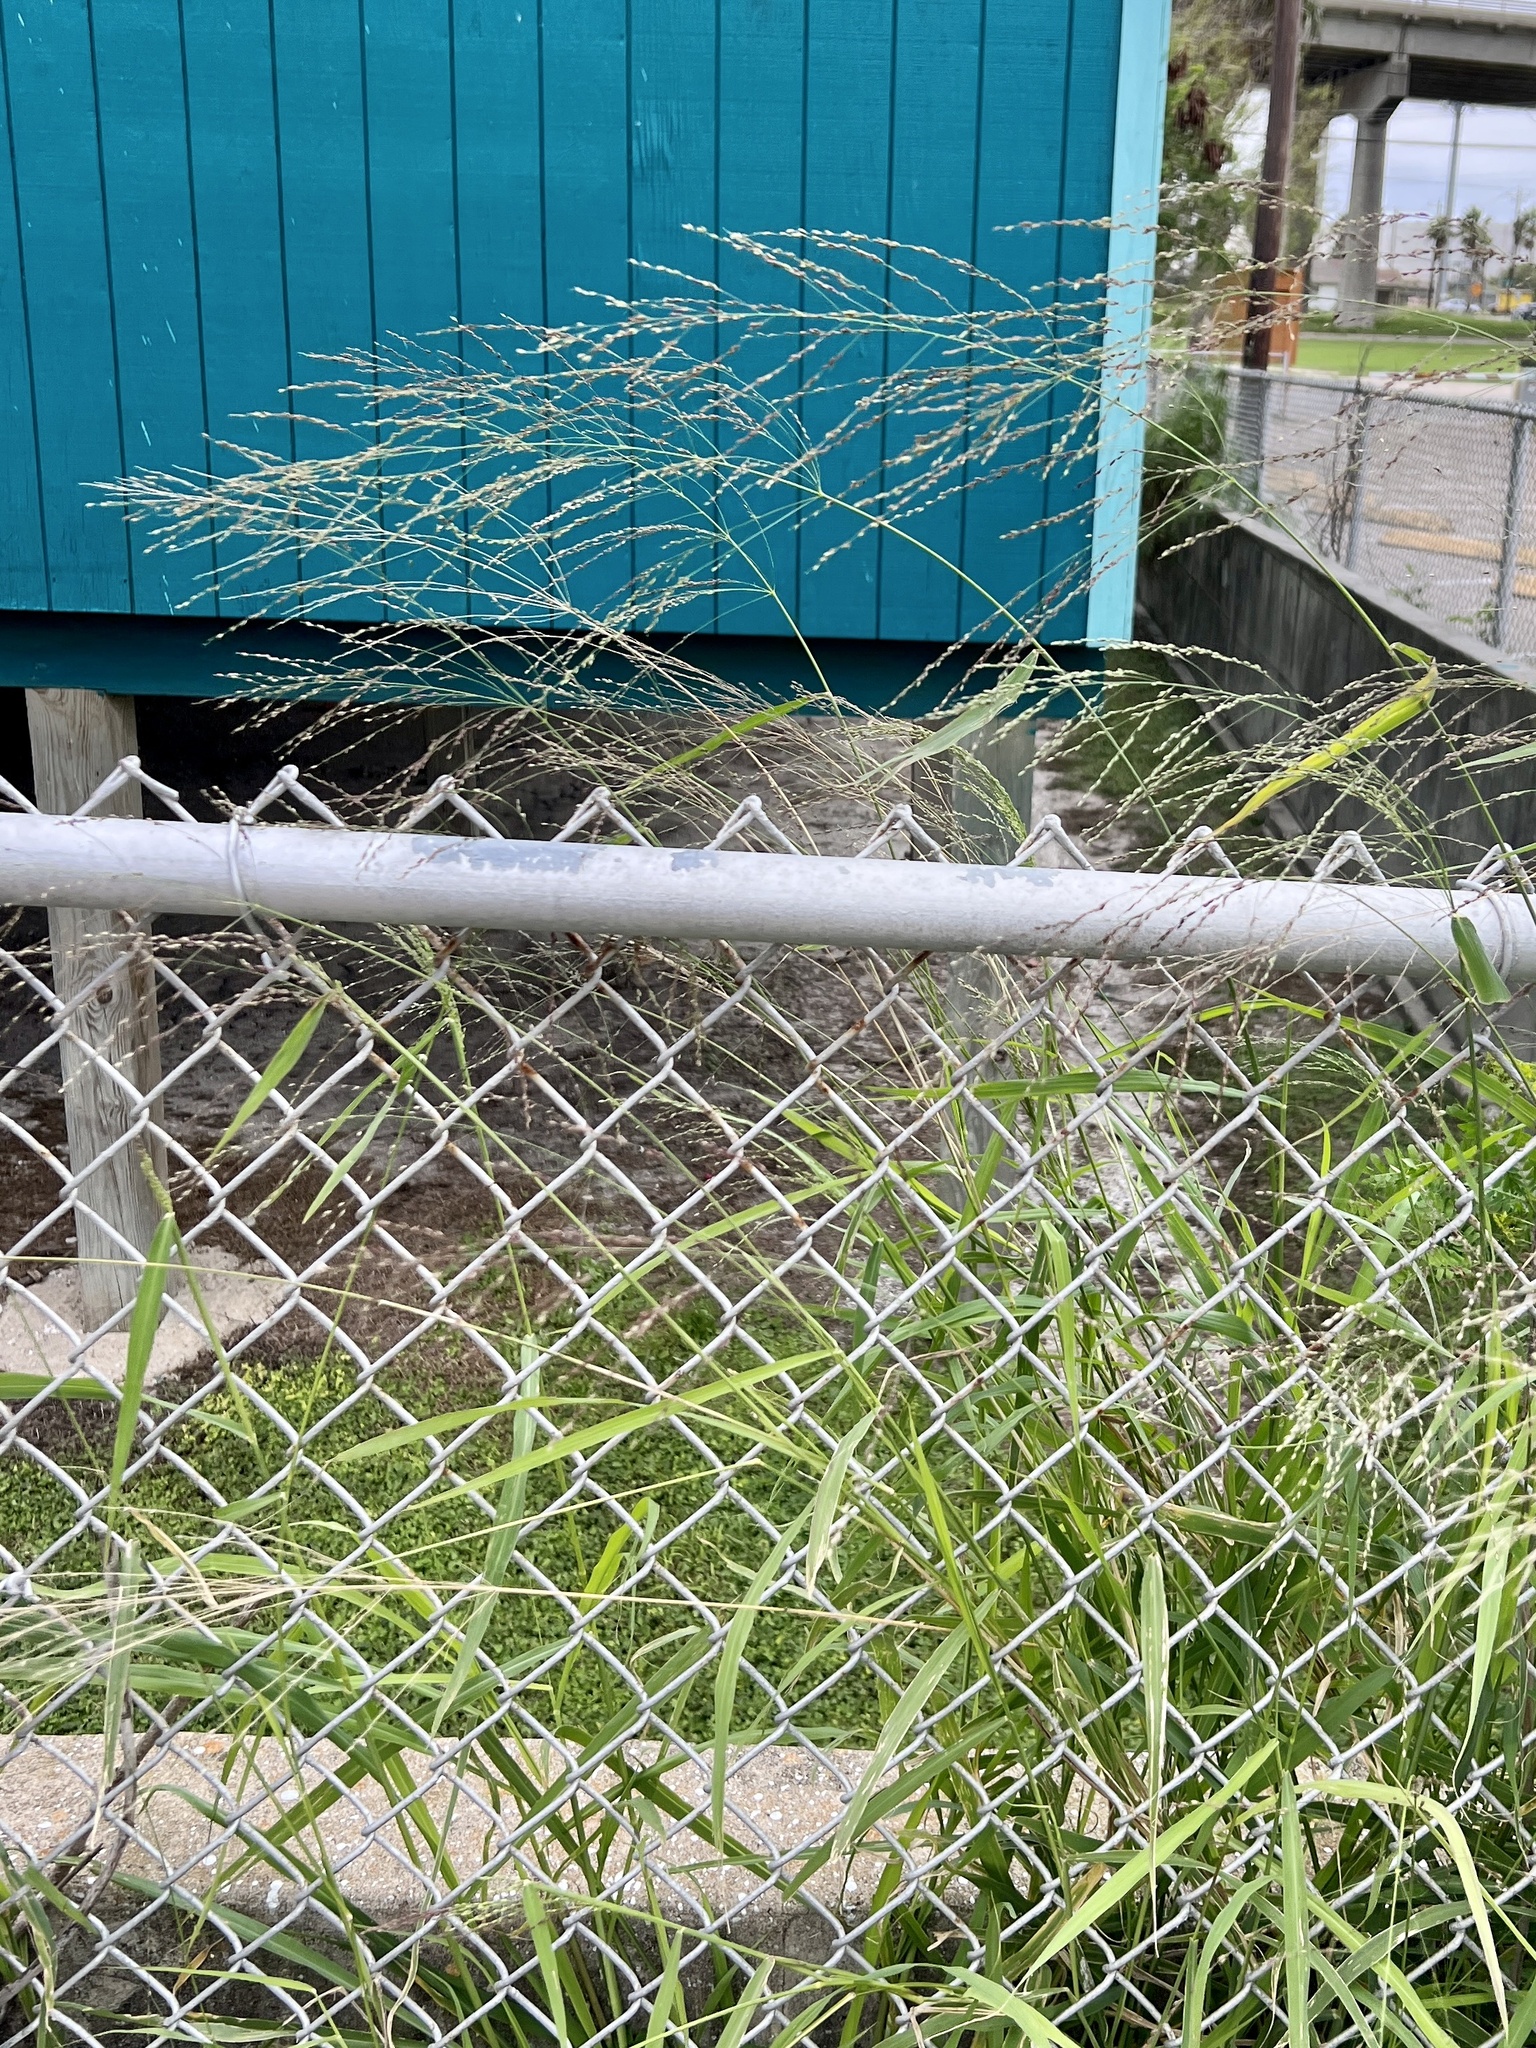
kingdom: Plantae
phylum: Tracheophyta
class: Liliopsida
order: Poales
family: Poaceae
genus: Megathyrsus
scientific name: Megathyrsus maximus
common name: Guineagrass
